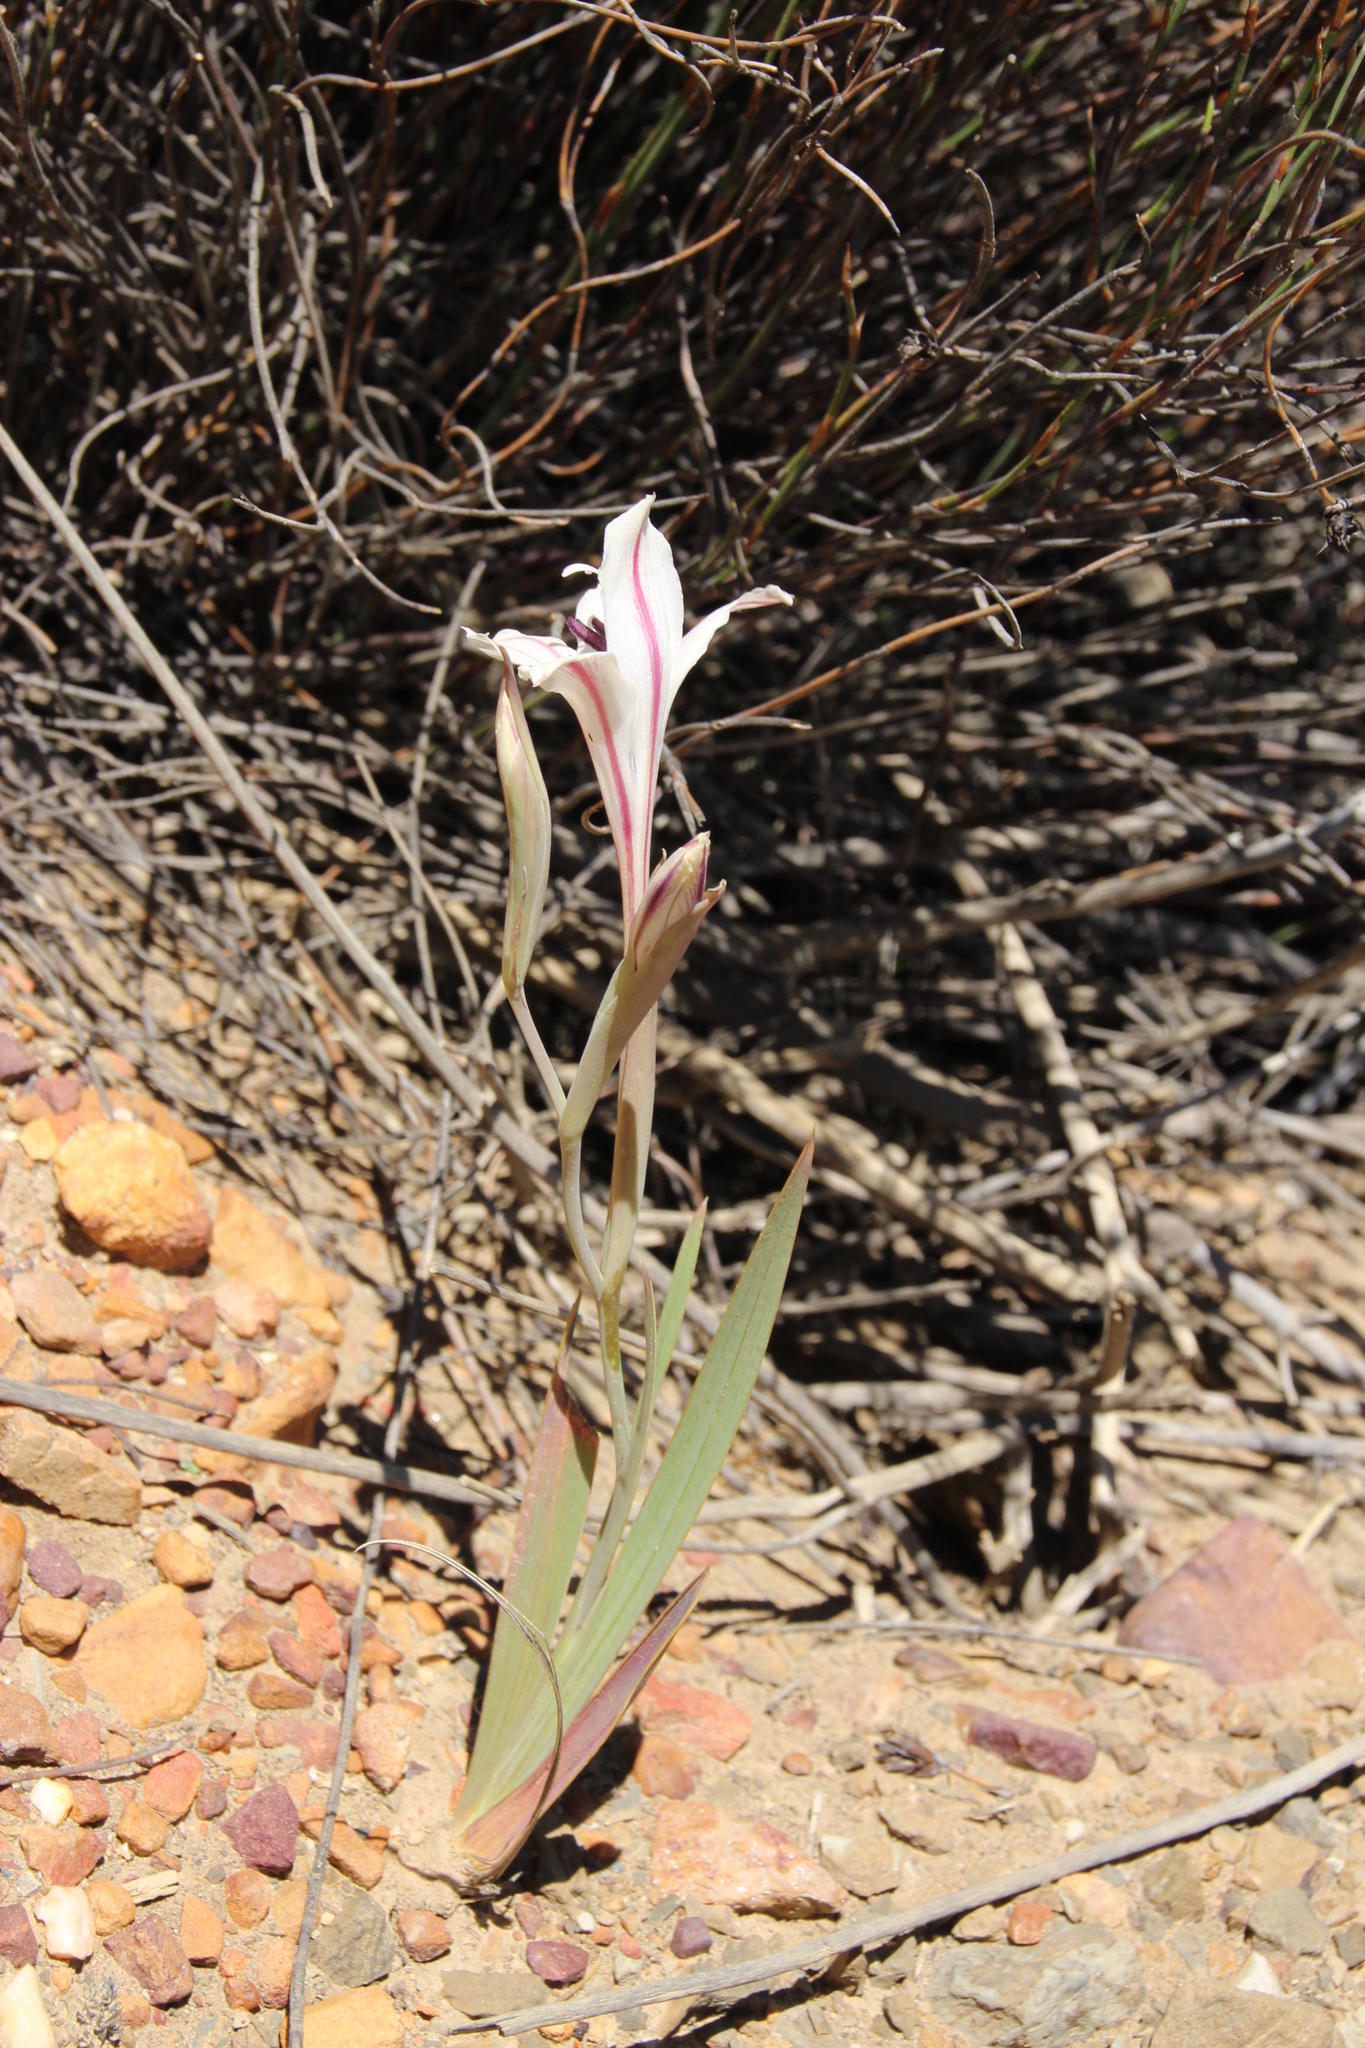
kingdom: Plantae
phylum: Tracheophyta
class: Liliopsida
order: Asparagales
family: Iridaceae
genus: Gladiolus
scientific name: Gladiolus floribundus
